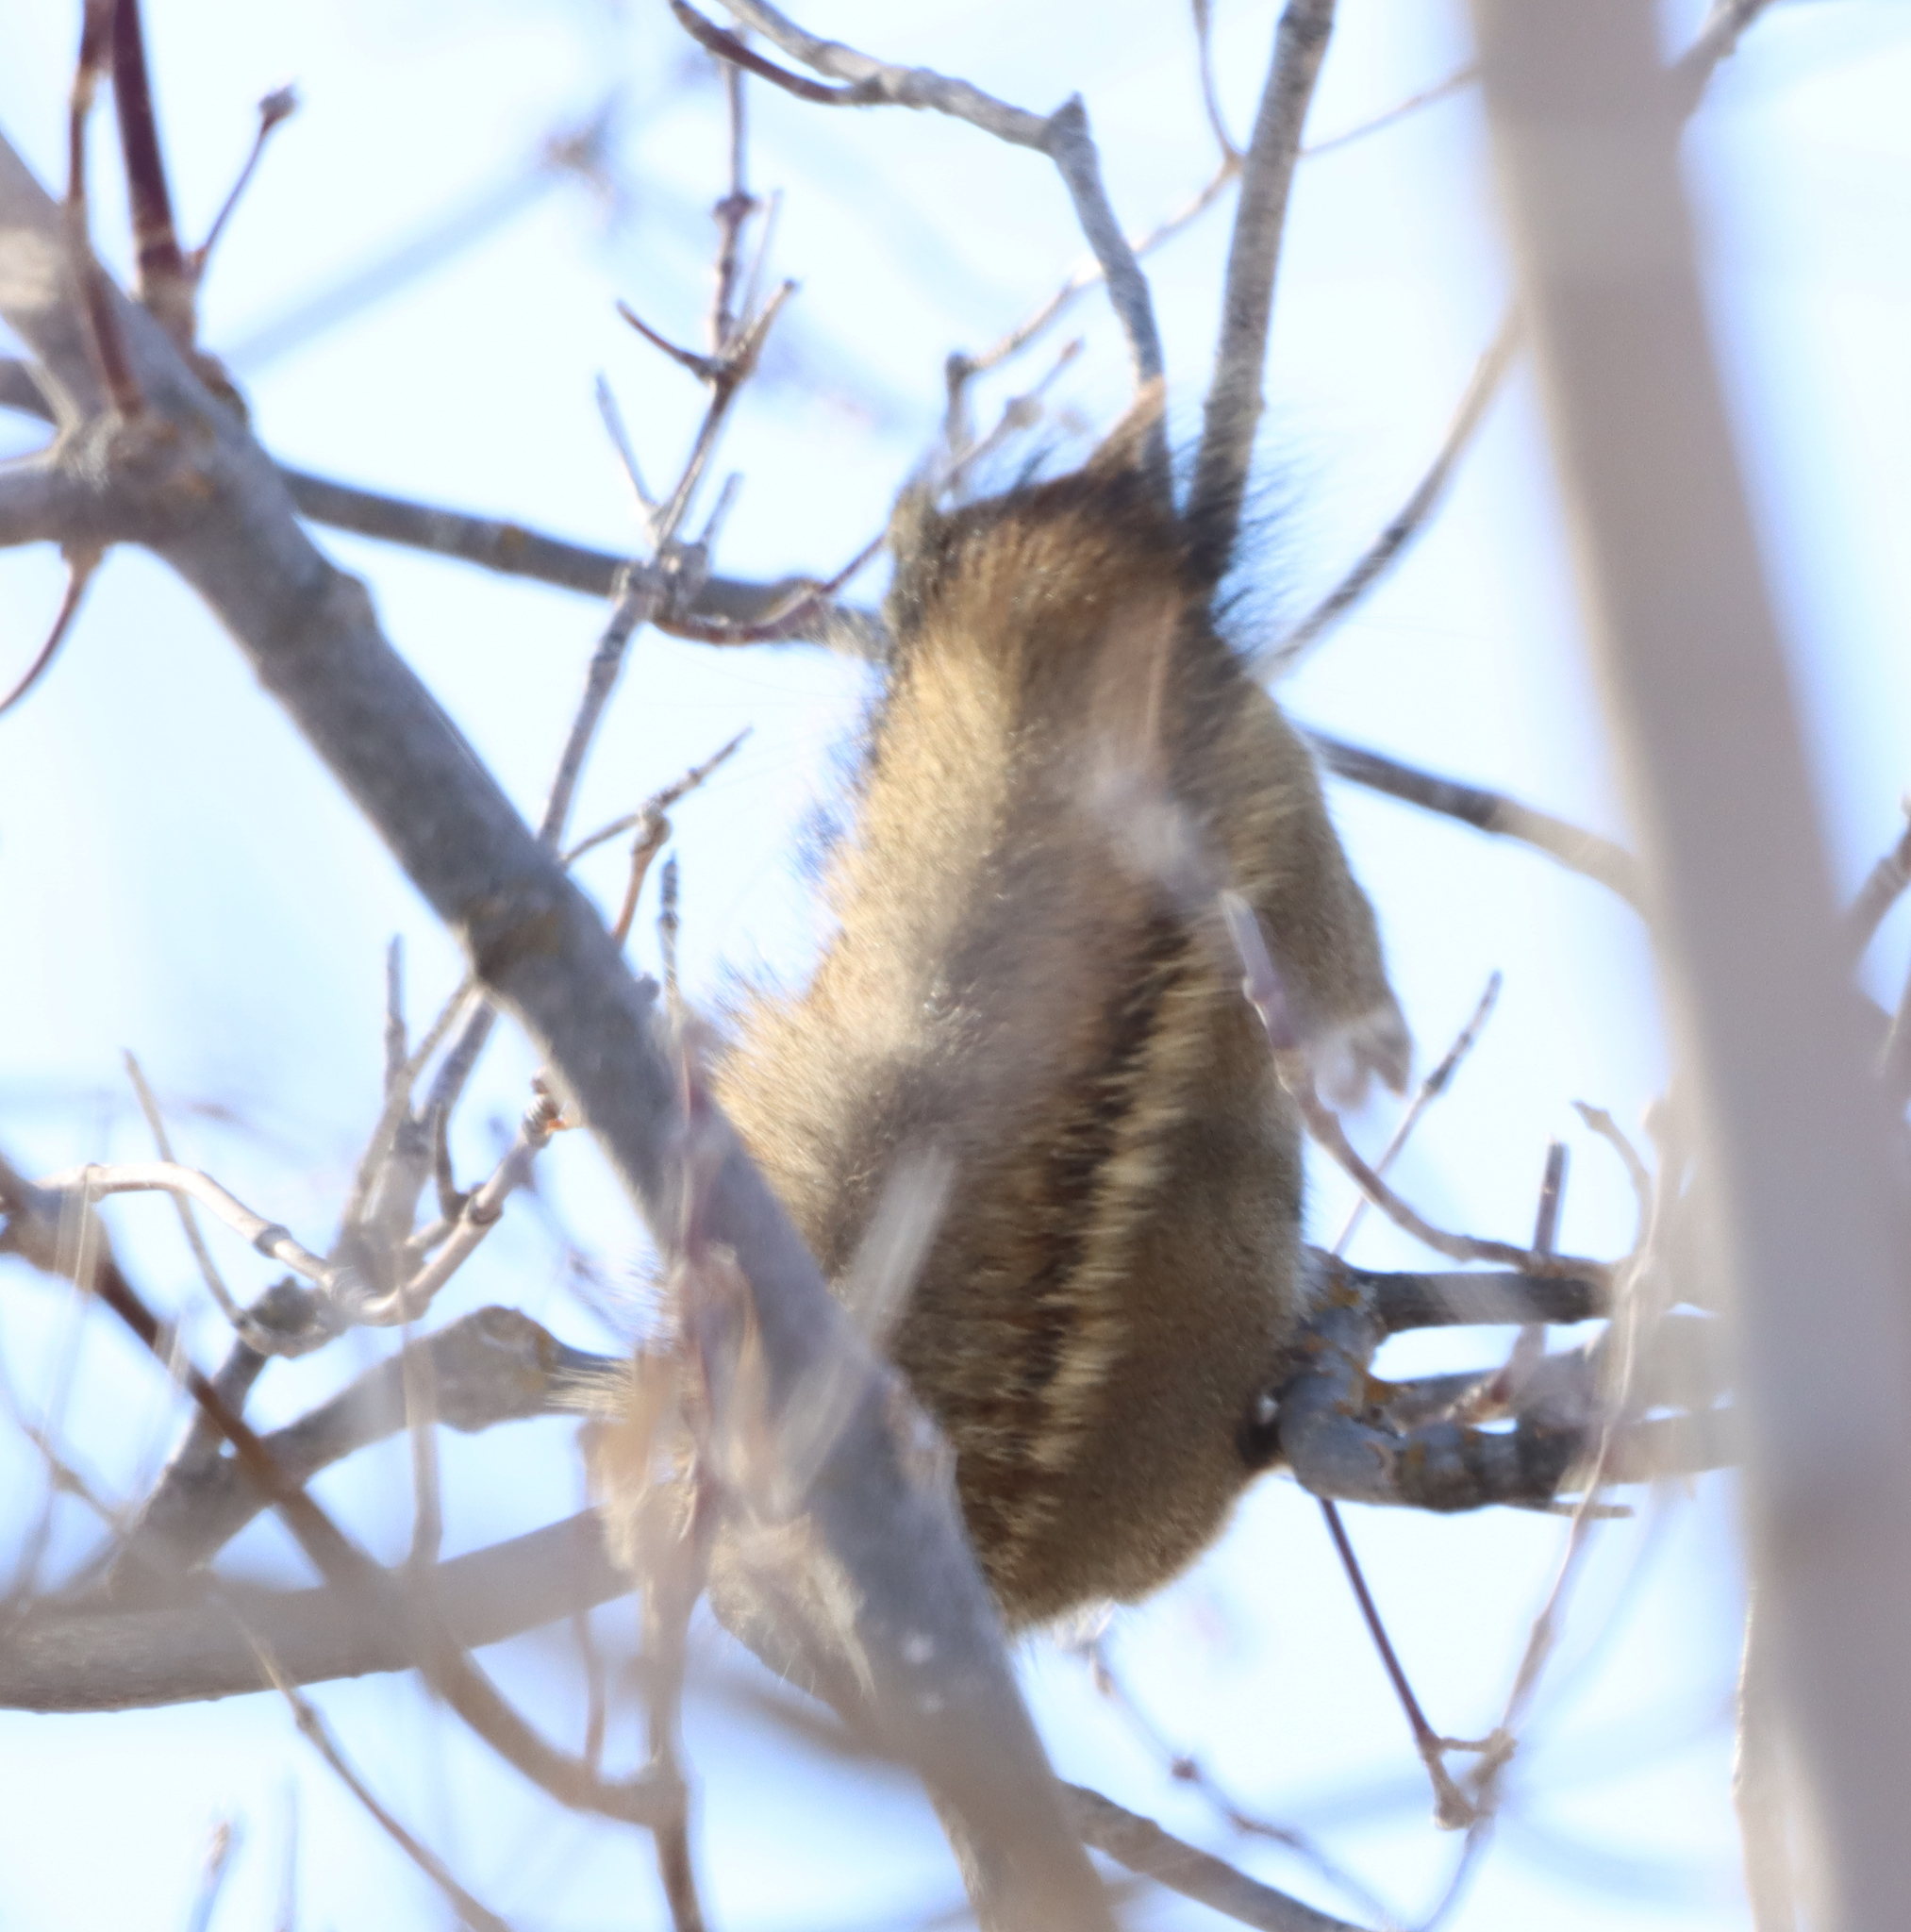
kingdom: Animalia
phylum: Chordata
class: Mammalia
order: Rodentia
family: Sciuridae
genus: Tamiasciurus
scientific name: Tamiasciurus hudsonicus
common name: Red squirrel
